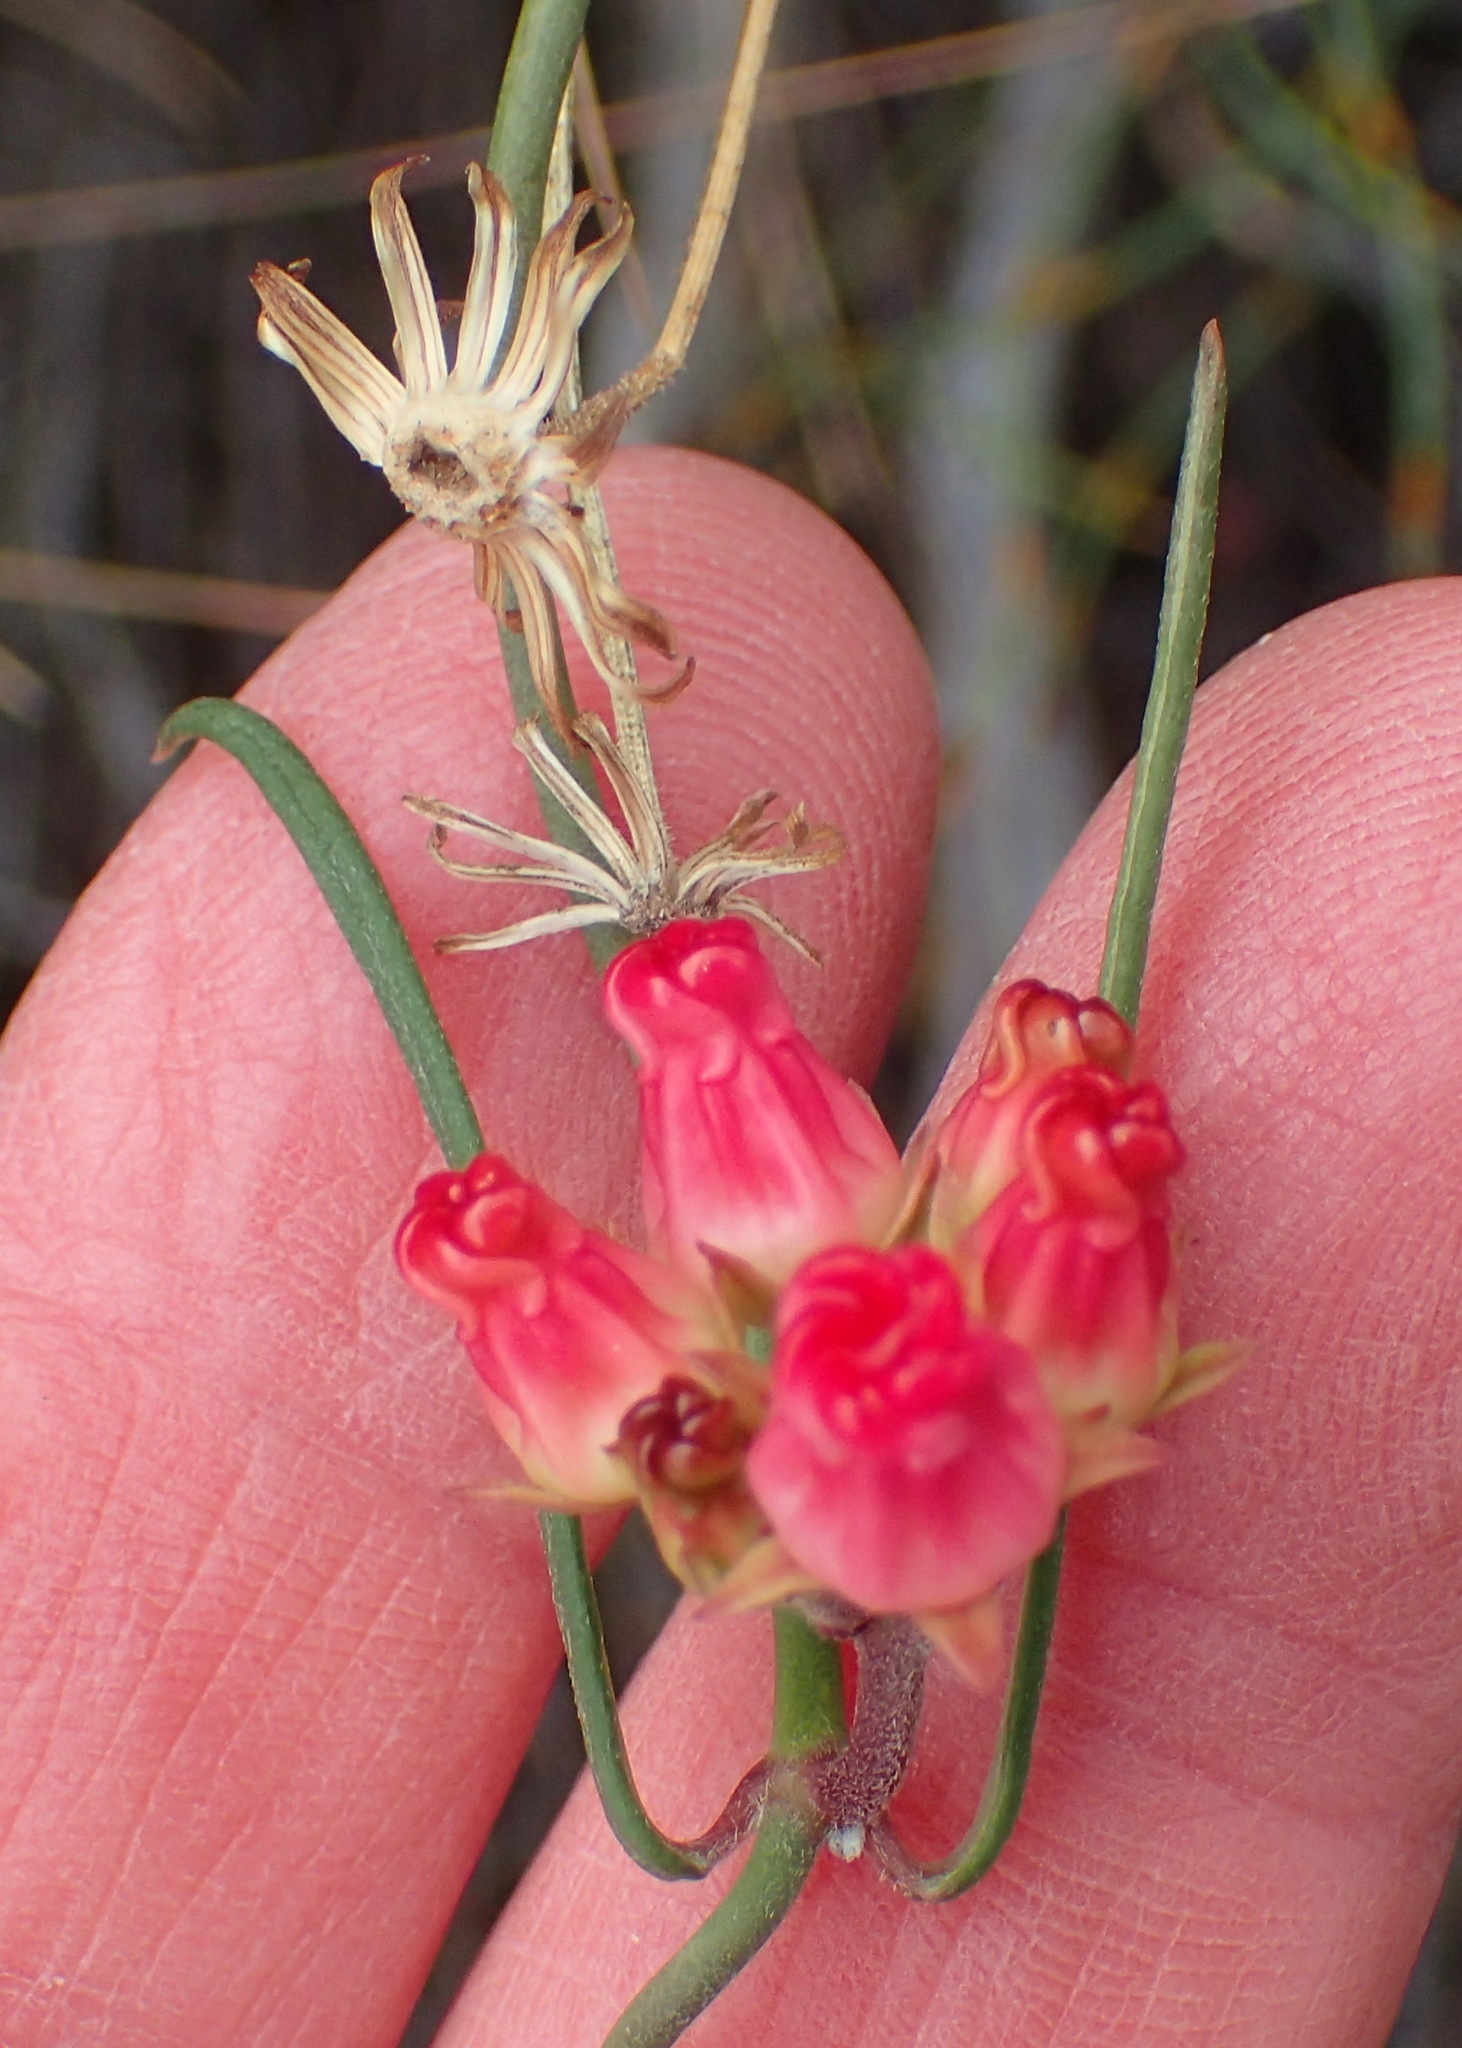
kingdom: Plantae
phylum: Tracheophyta
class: Magnoliopsida
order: Gentianales
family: Apocynaceae
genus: Microloma
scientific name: Microloma tenuifolium
